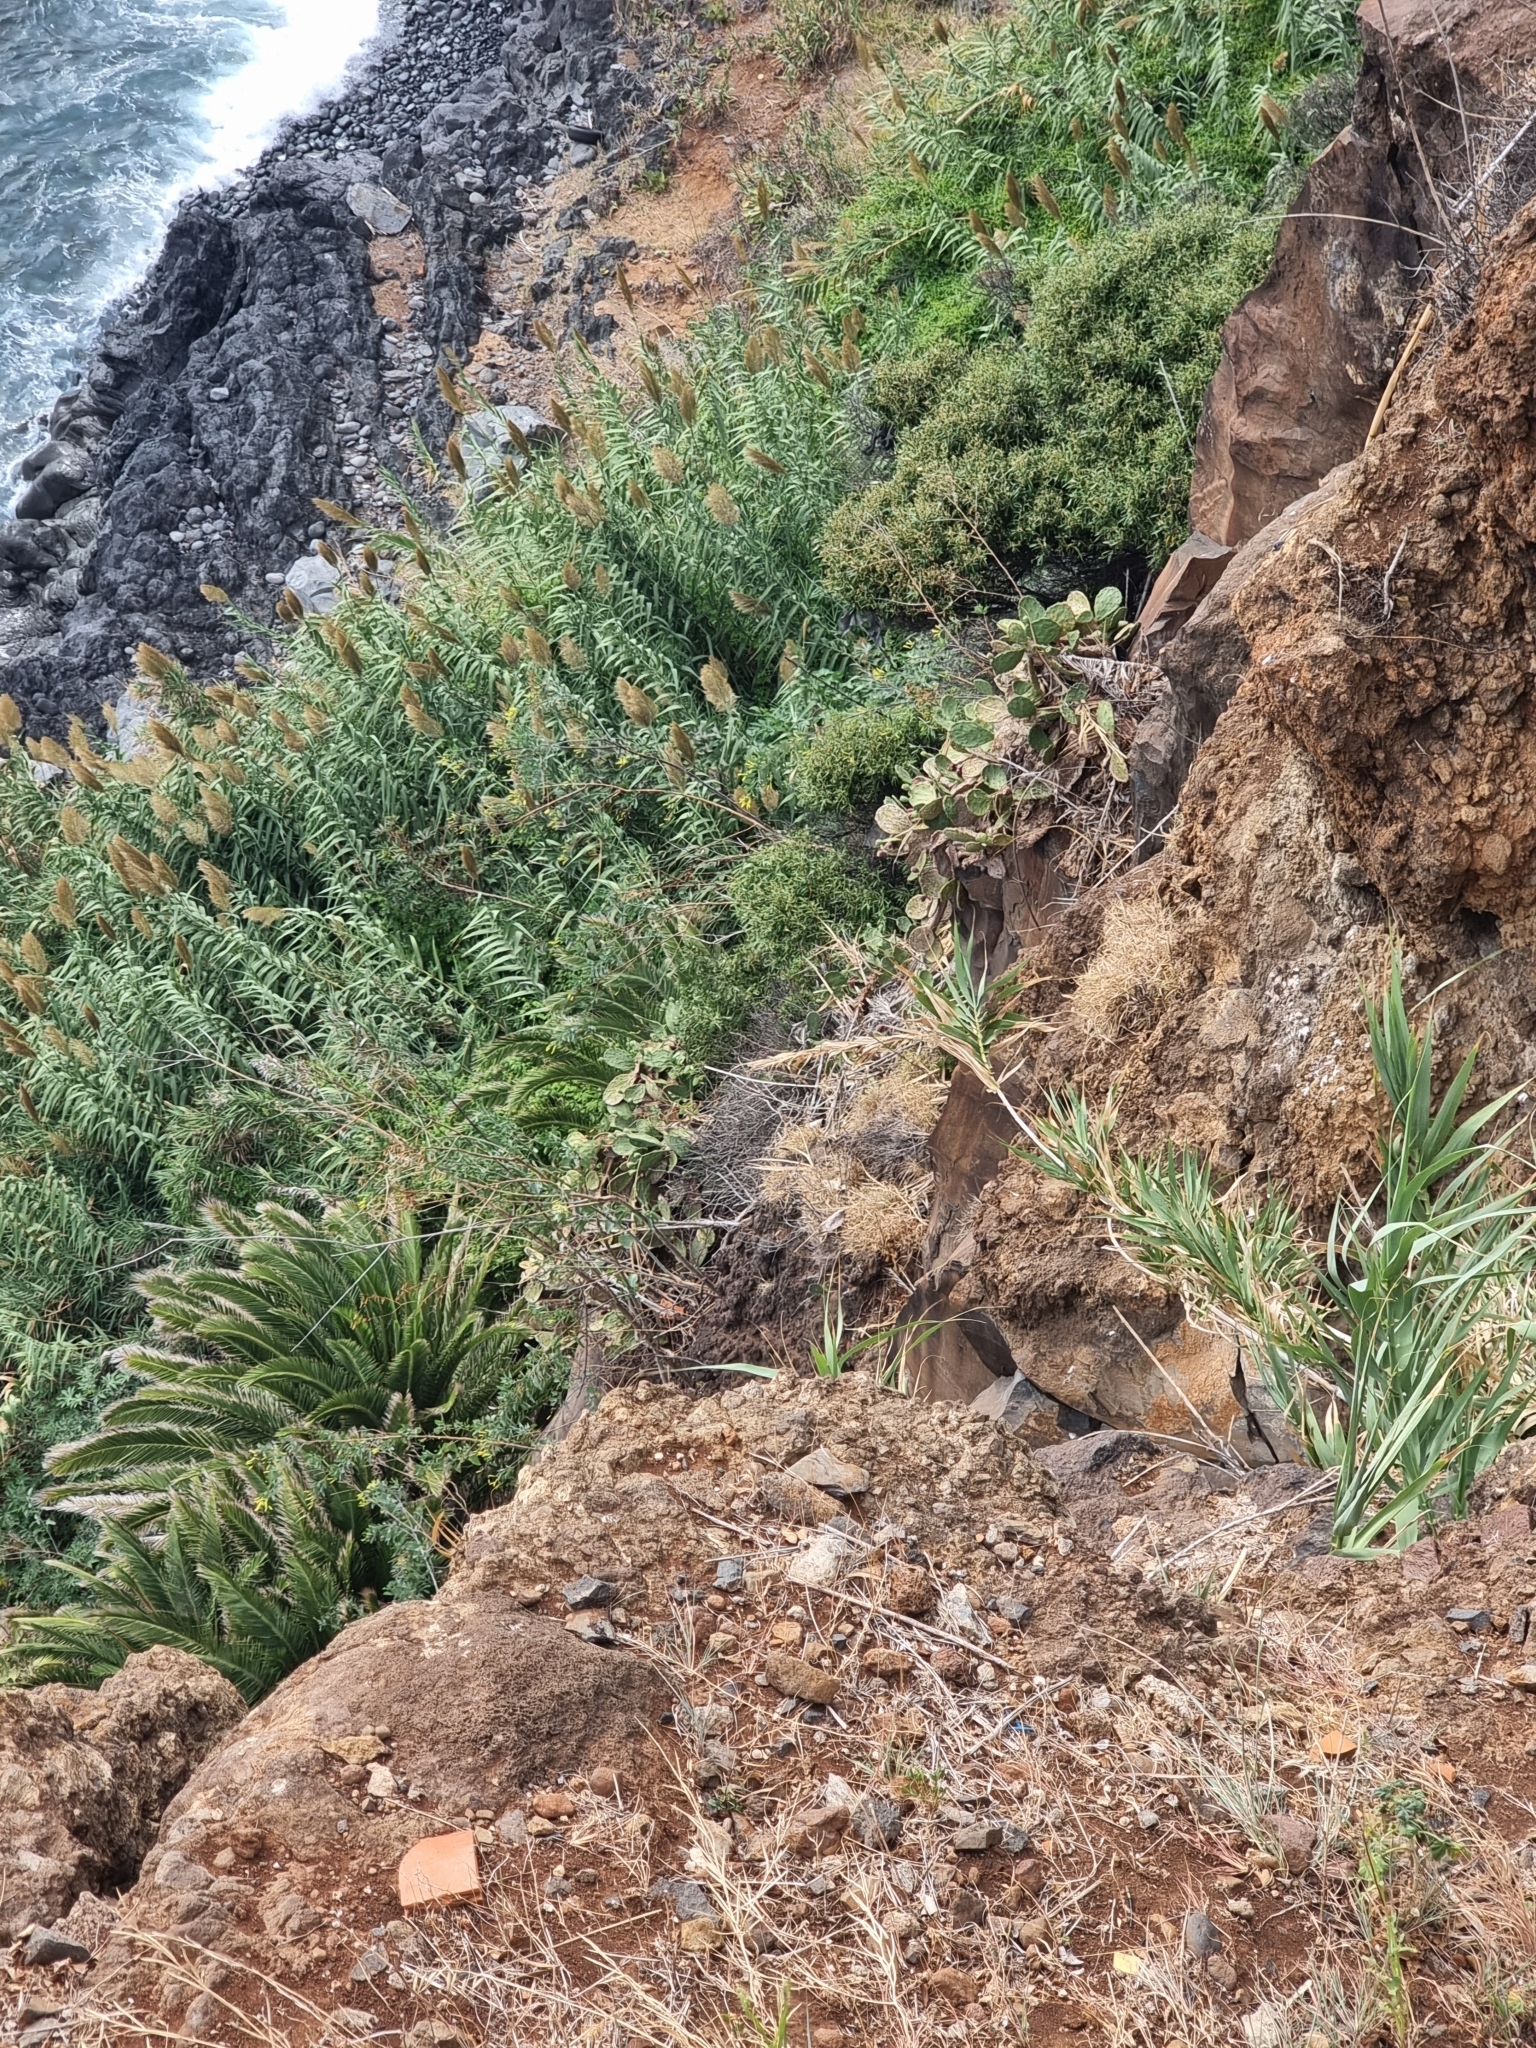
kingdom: Plantae
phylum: Tracheophyta
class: Liliopsida
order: Poales
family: Poaceae
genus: Arundo
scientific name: Arundo donax
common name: Giant reed
